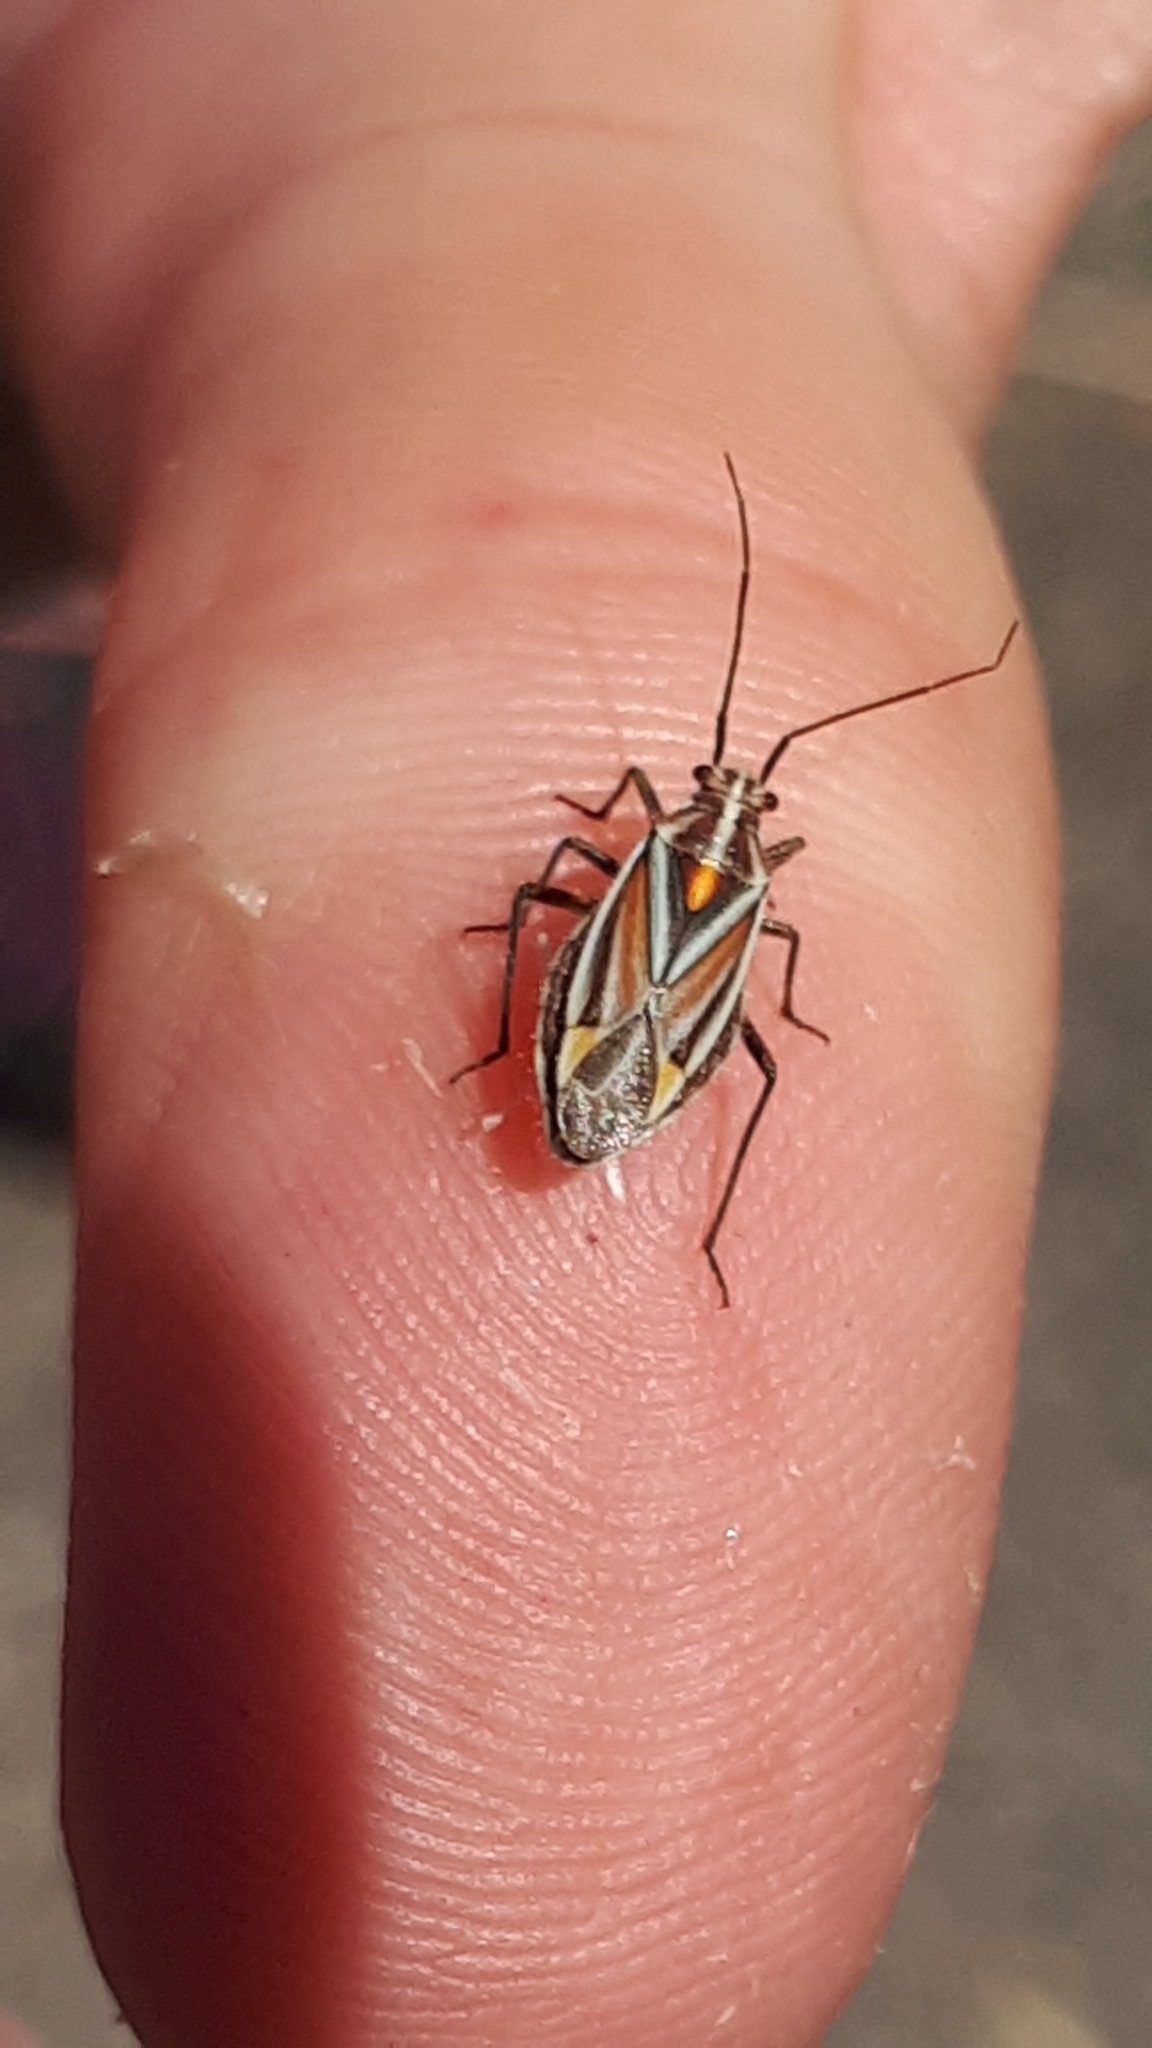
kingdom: Animalia
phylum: Arthropoda
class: Insecta
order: Hemiptera
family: Miridae
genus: Horistus
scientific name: Horistus orientalis
